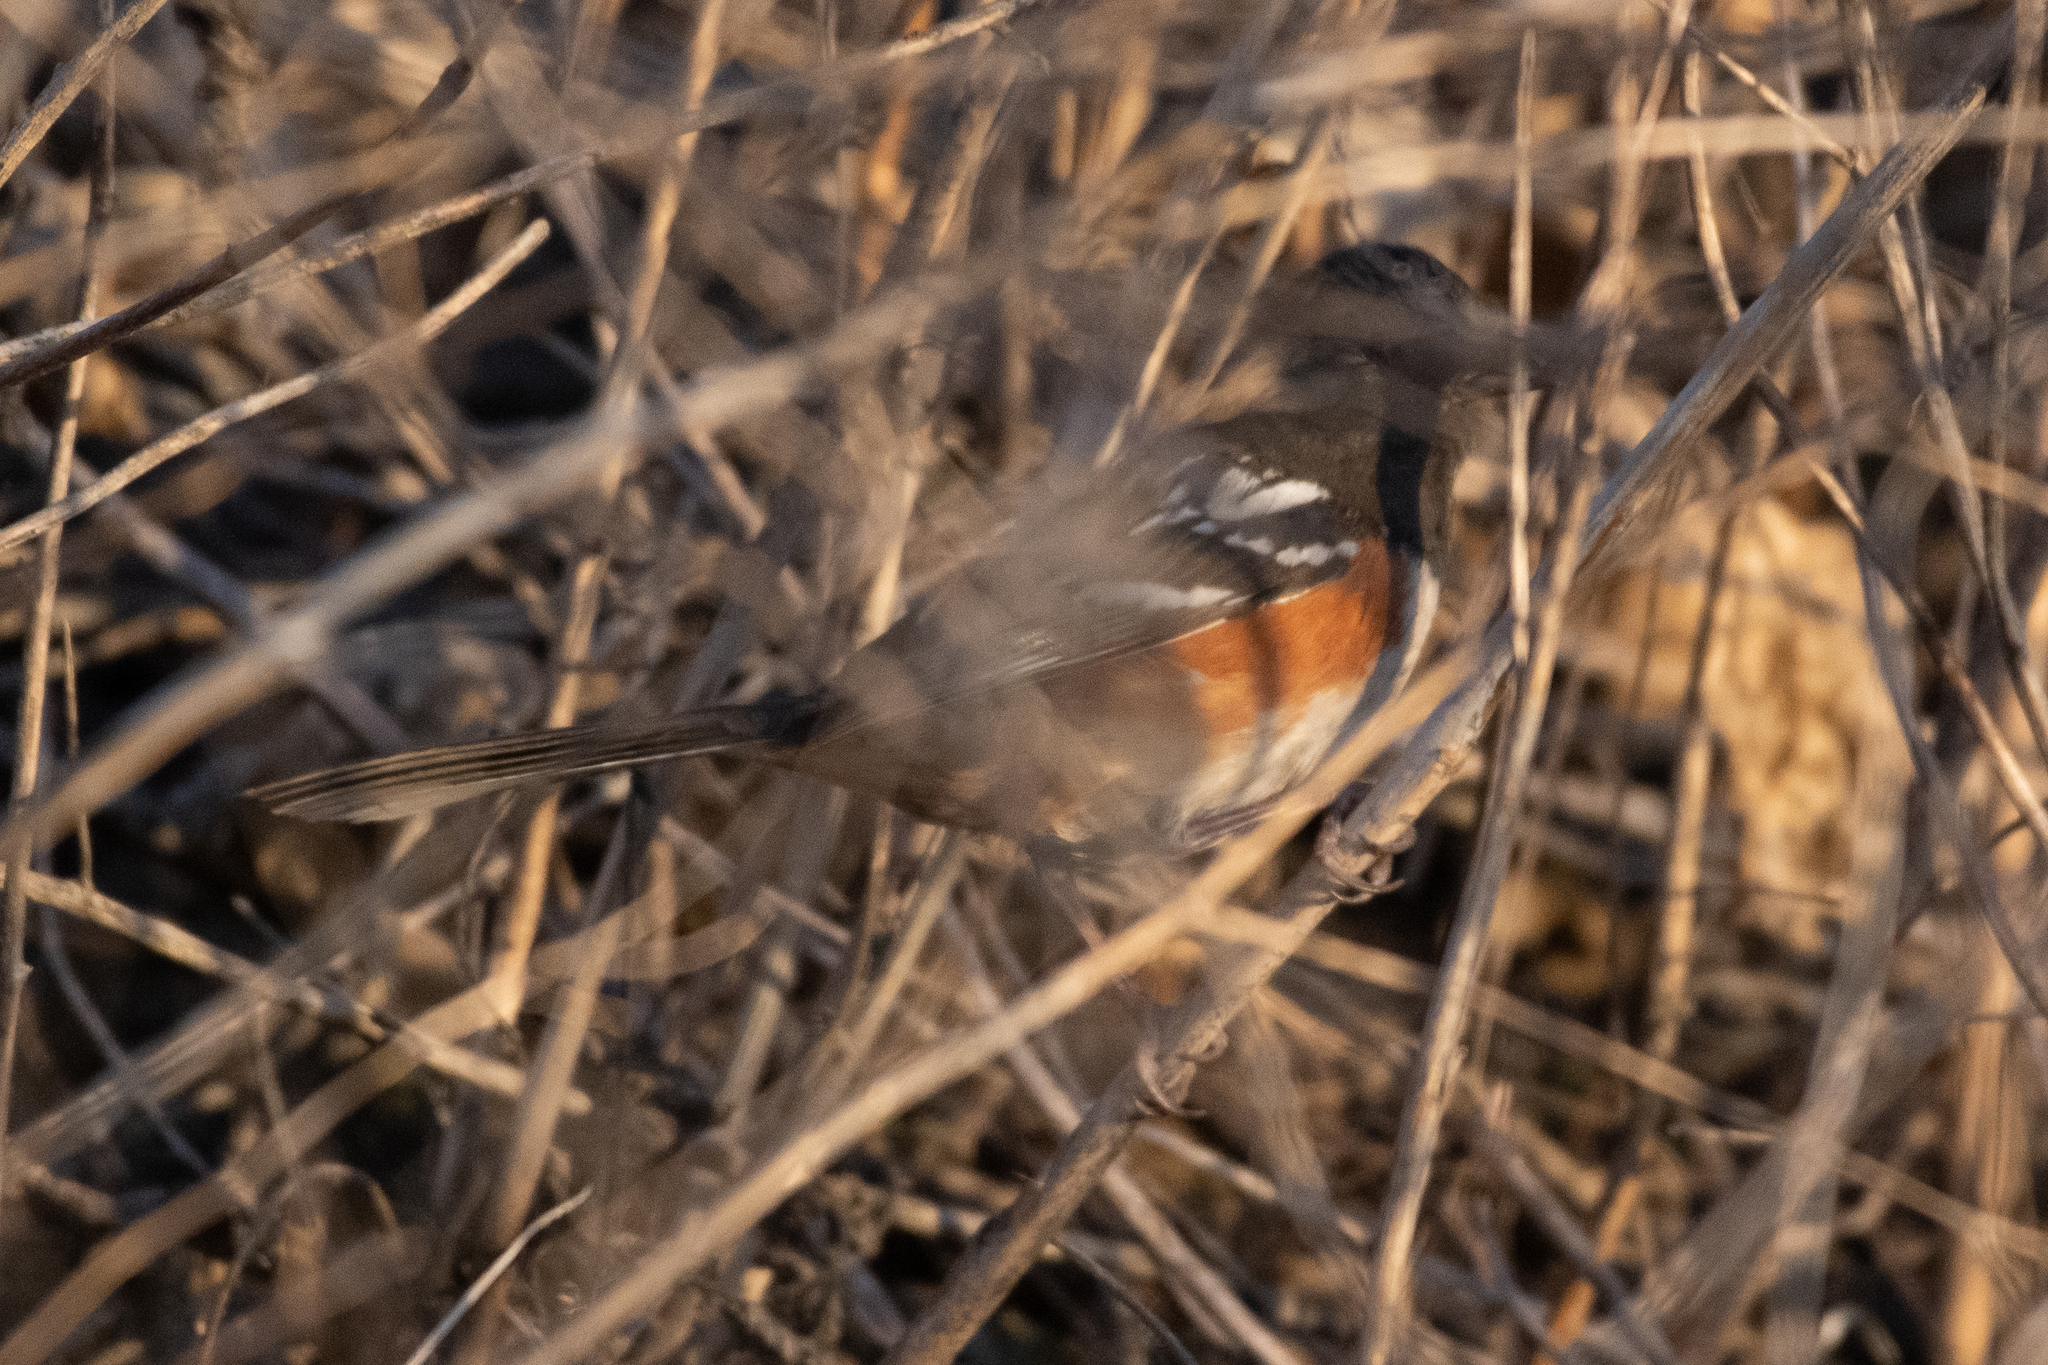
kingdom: Animalia
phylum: Chordata
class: Aves
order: Passeriformes
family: Passerellidae
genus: Pipilo
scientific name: Pipilo maculatus
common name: Spotted towhee
